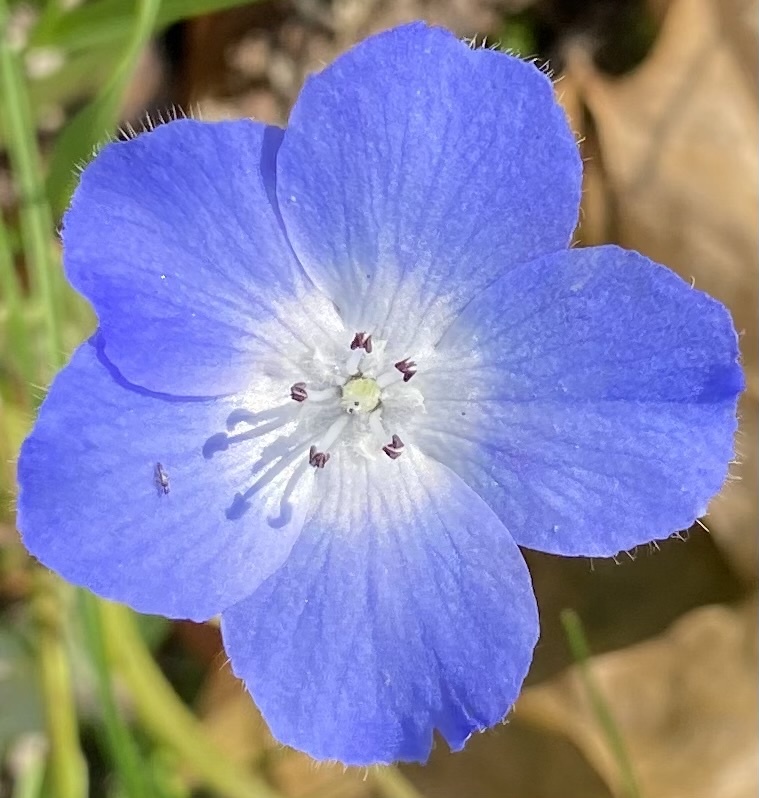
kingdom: Plantae
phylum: Tracheophyta
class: Magnoliopsida
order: Boraginales
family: Hydrophyllaceae
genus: Nemophila
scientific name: Nemophila menziesii
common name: Baby's-blue-eyes
